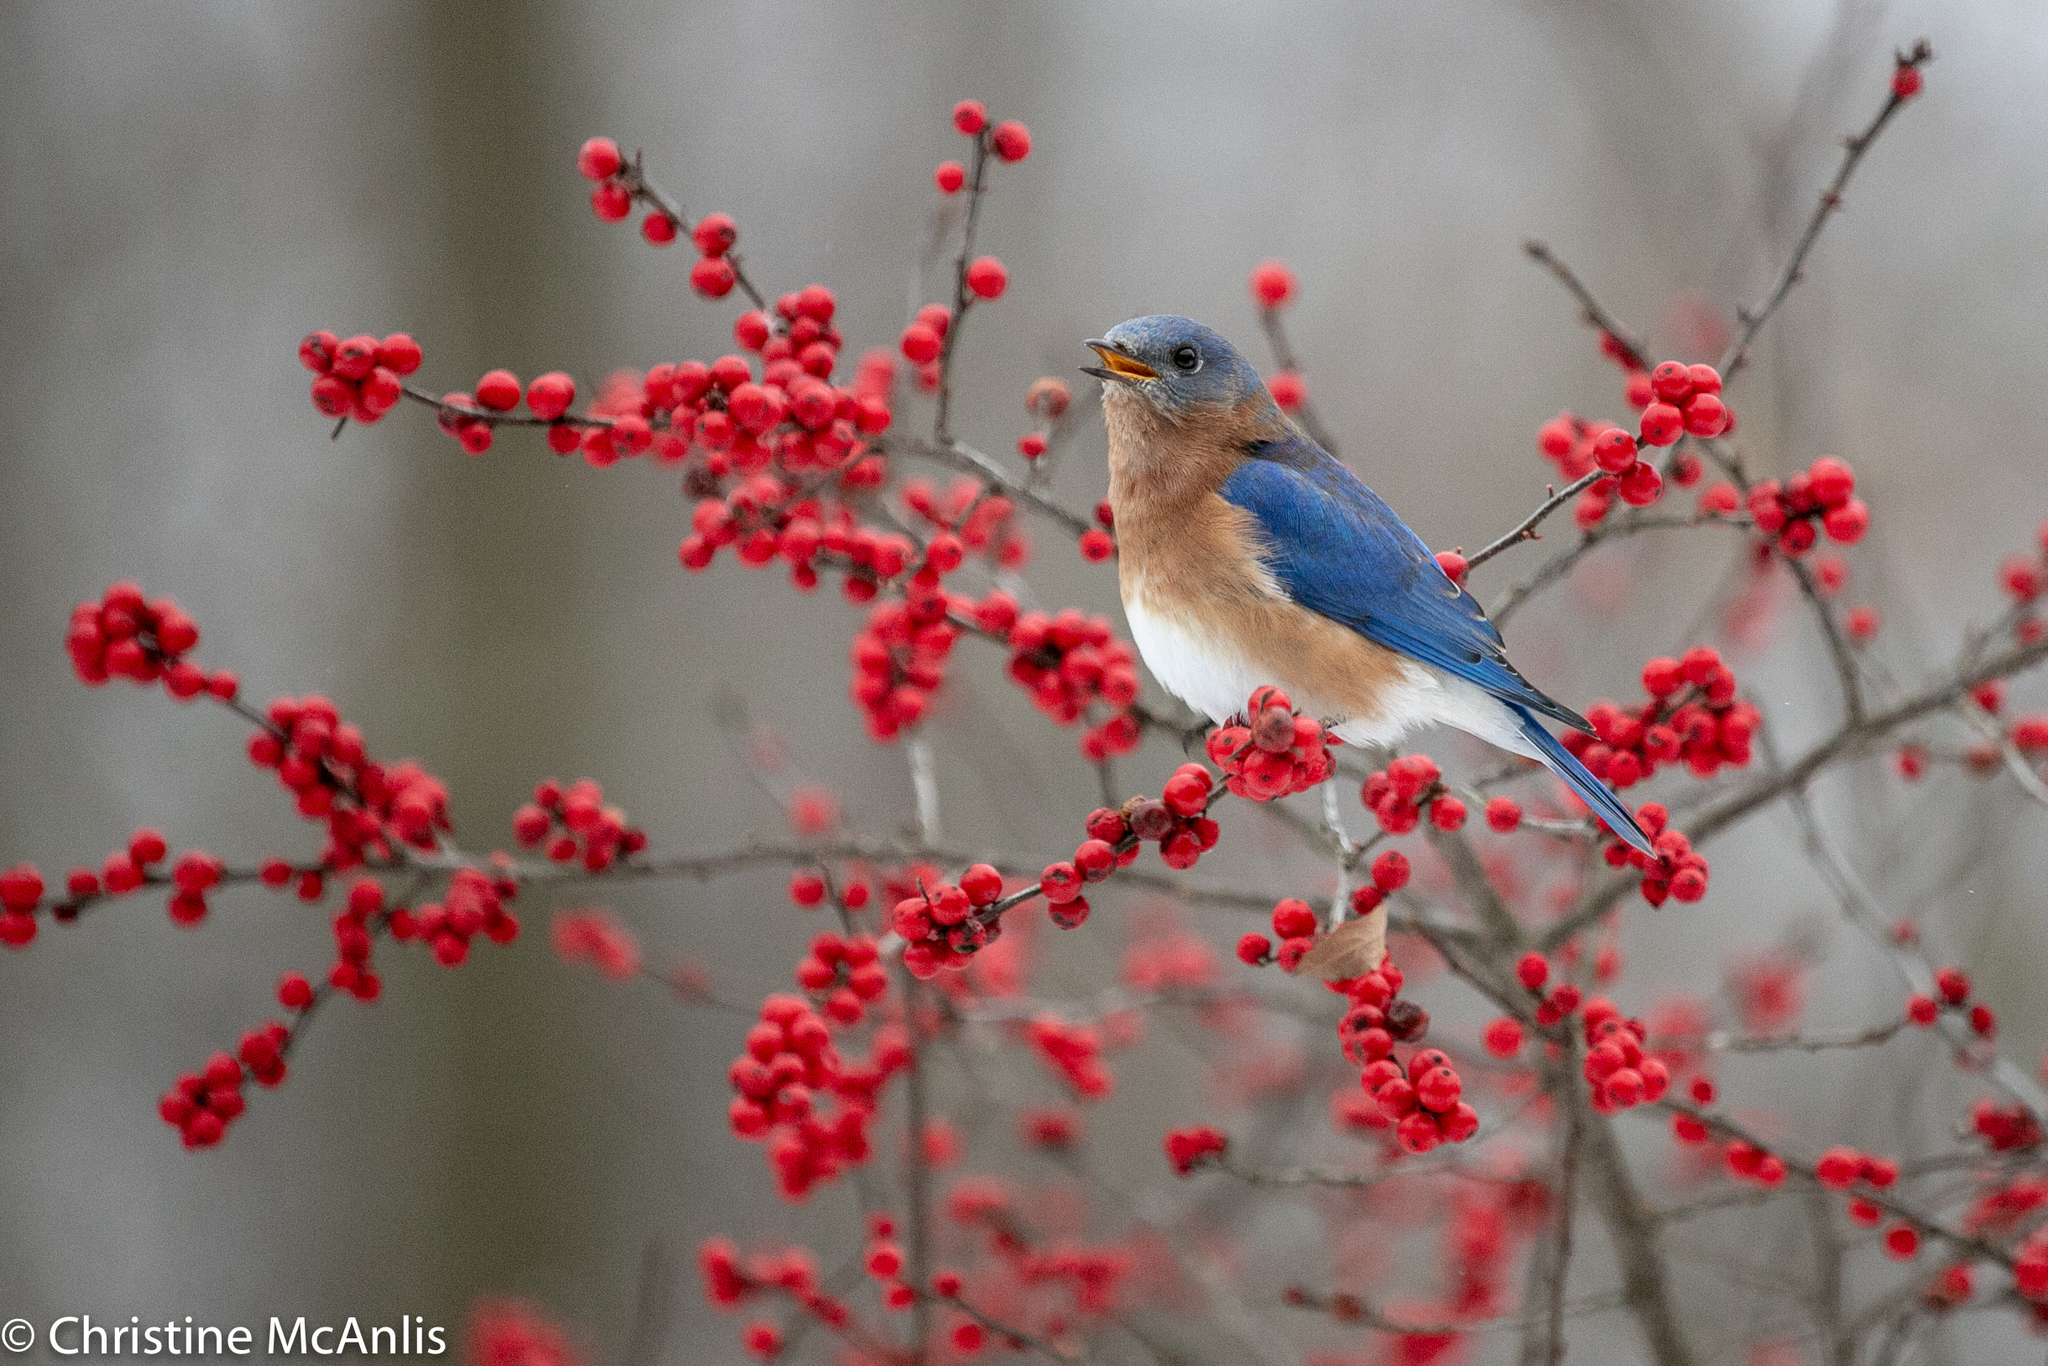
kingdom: Animalia
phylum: Chordata
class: Aves
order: Passeriformes
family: Turdidae
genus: Sialia
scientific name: Sialia sialis
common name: Eastern bluebird
